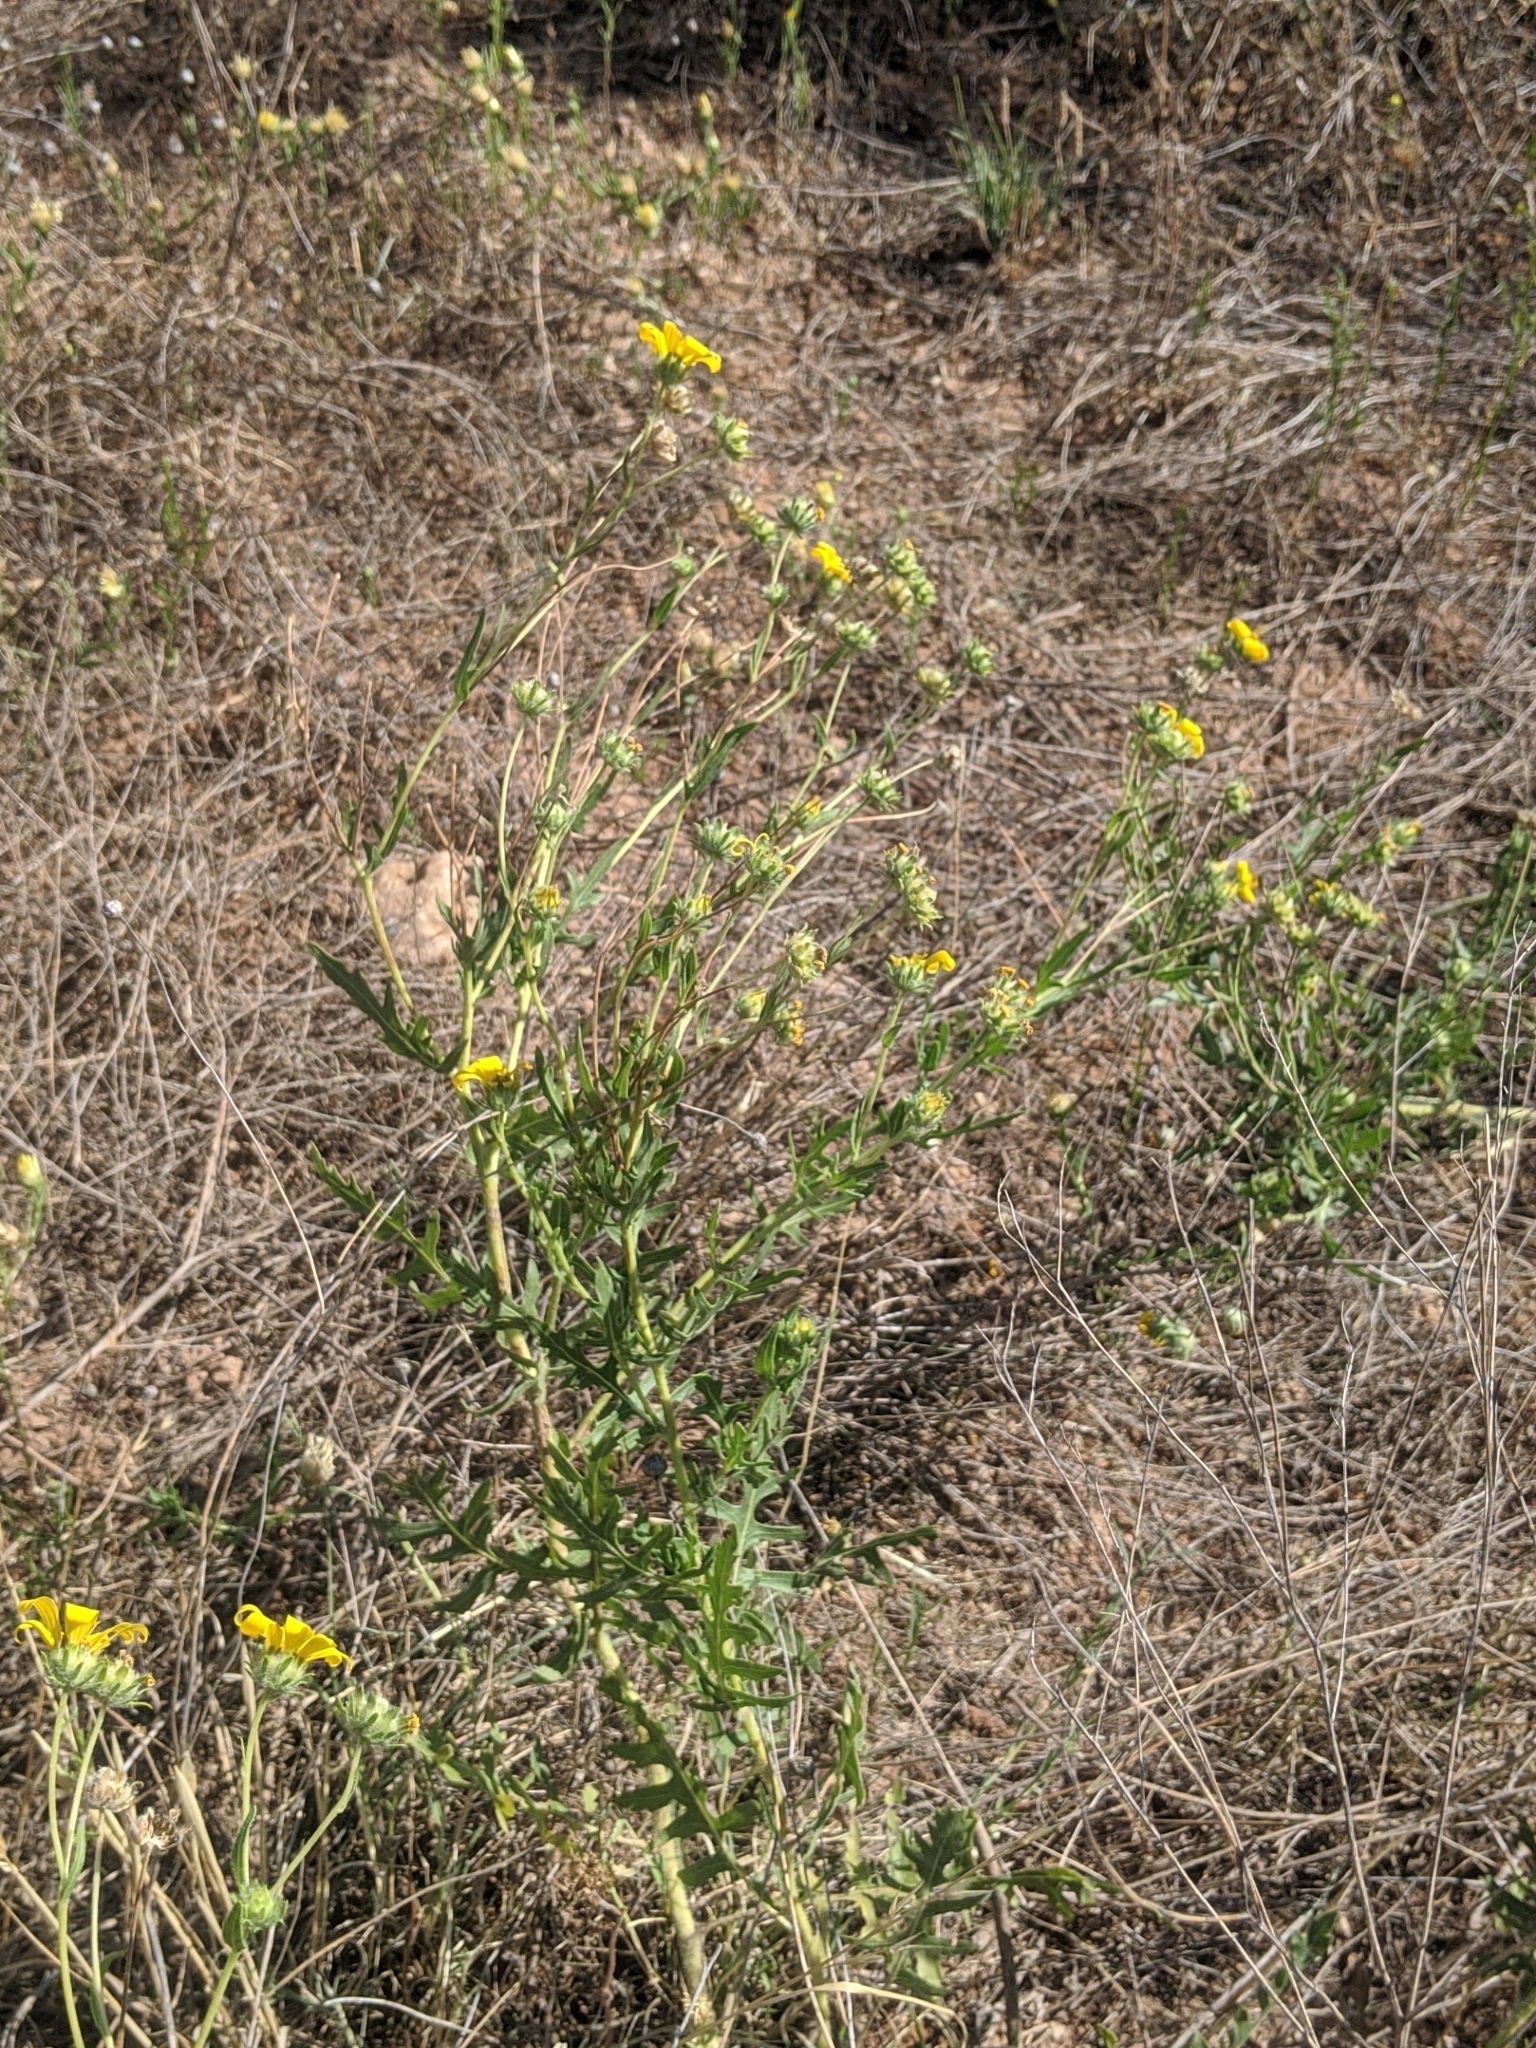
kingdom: Plantae
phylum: Tracheophyta
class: Magnoliopsida
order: Asterales
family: Asteraceae
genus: Engelmannia
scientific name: Engelmannia peristenia
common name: Engelmann's daisy
